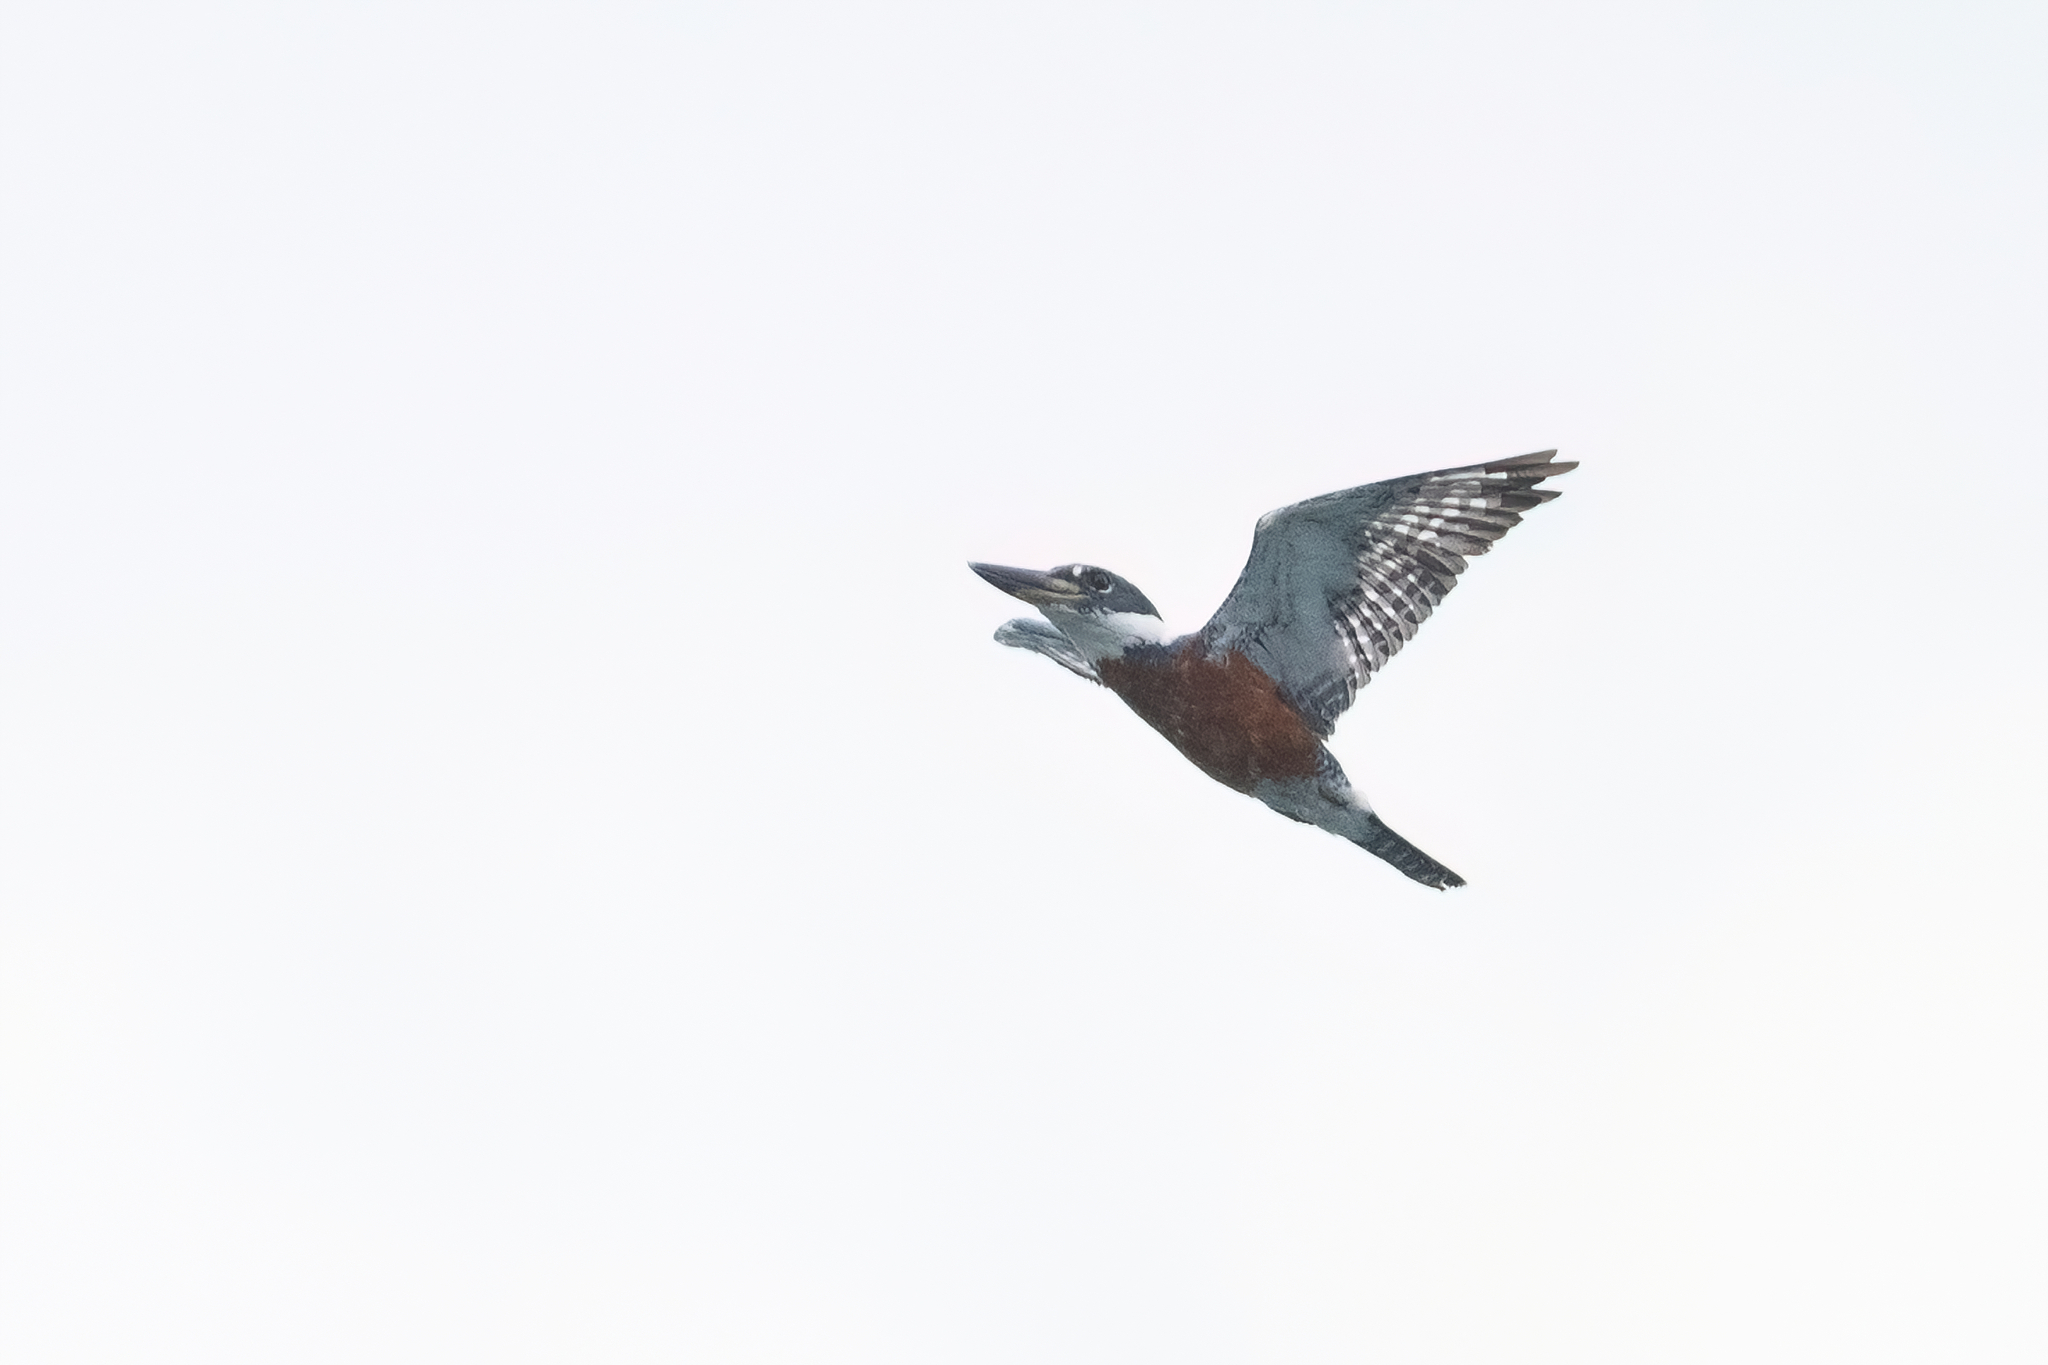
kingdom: Animalia
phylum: Chordata
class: Aves
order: Coraciiformes
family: Alcedinidae
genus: Megaceryle
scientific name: Megaceryle torquata
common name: Ringed kingfisher
